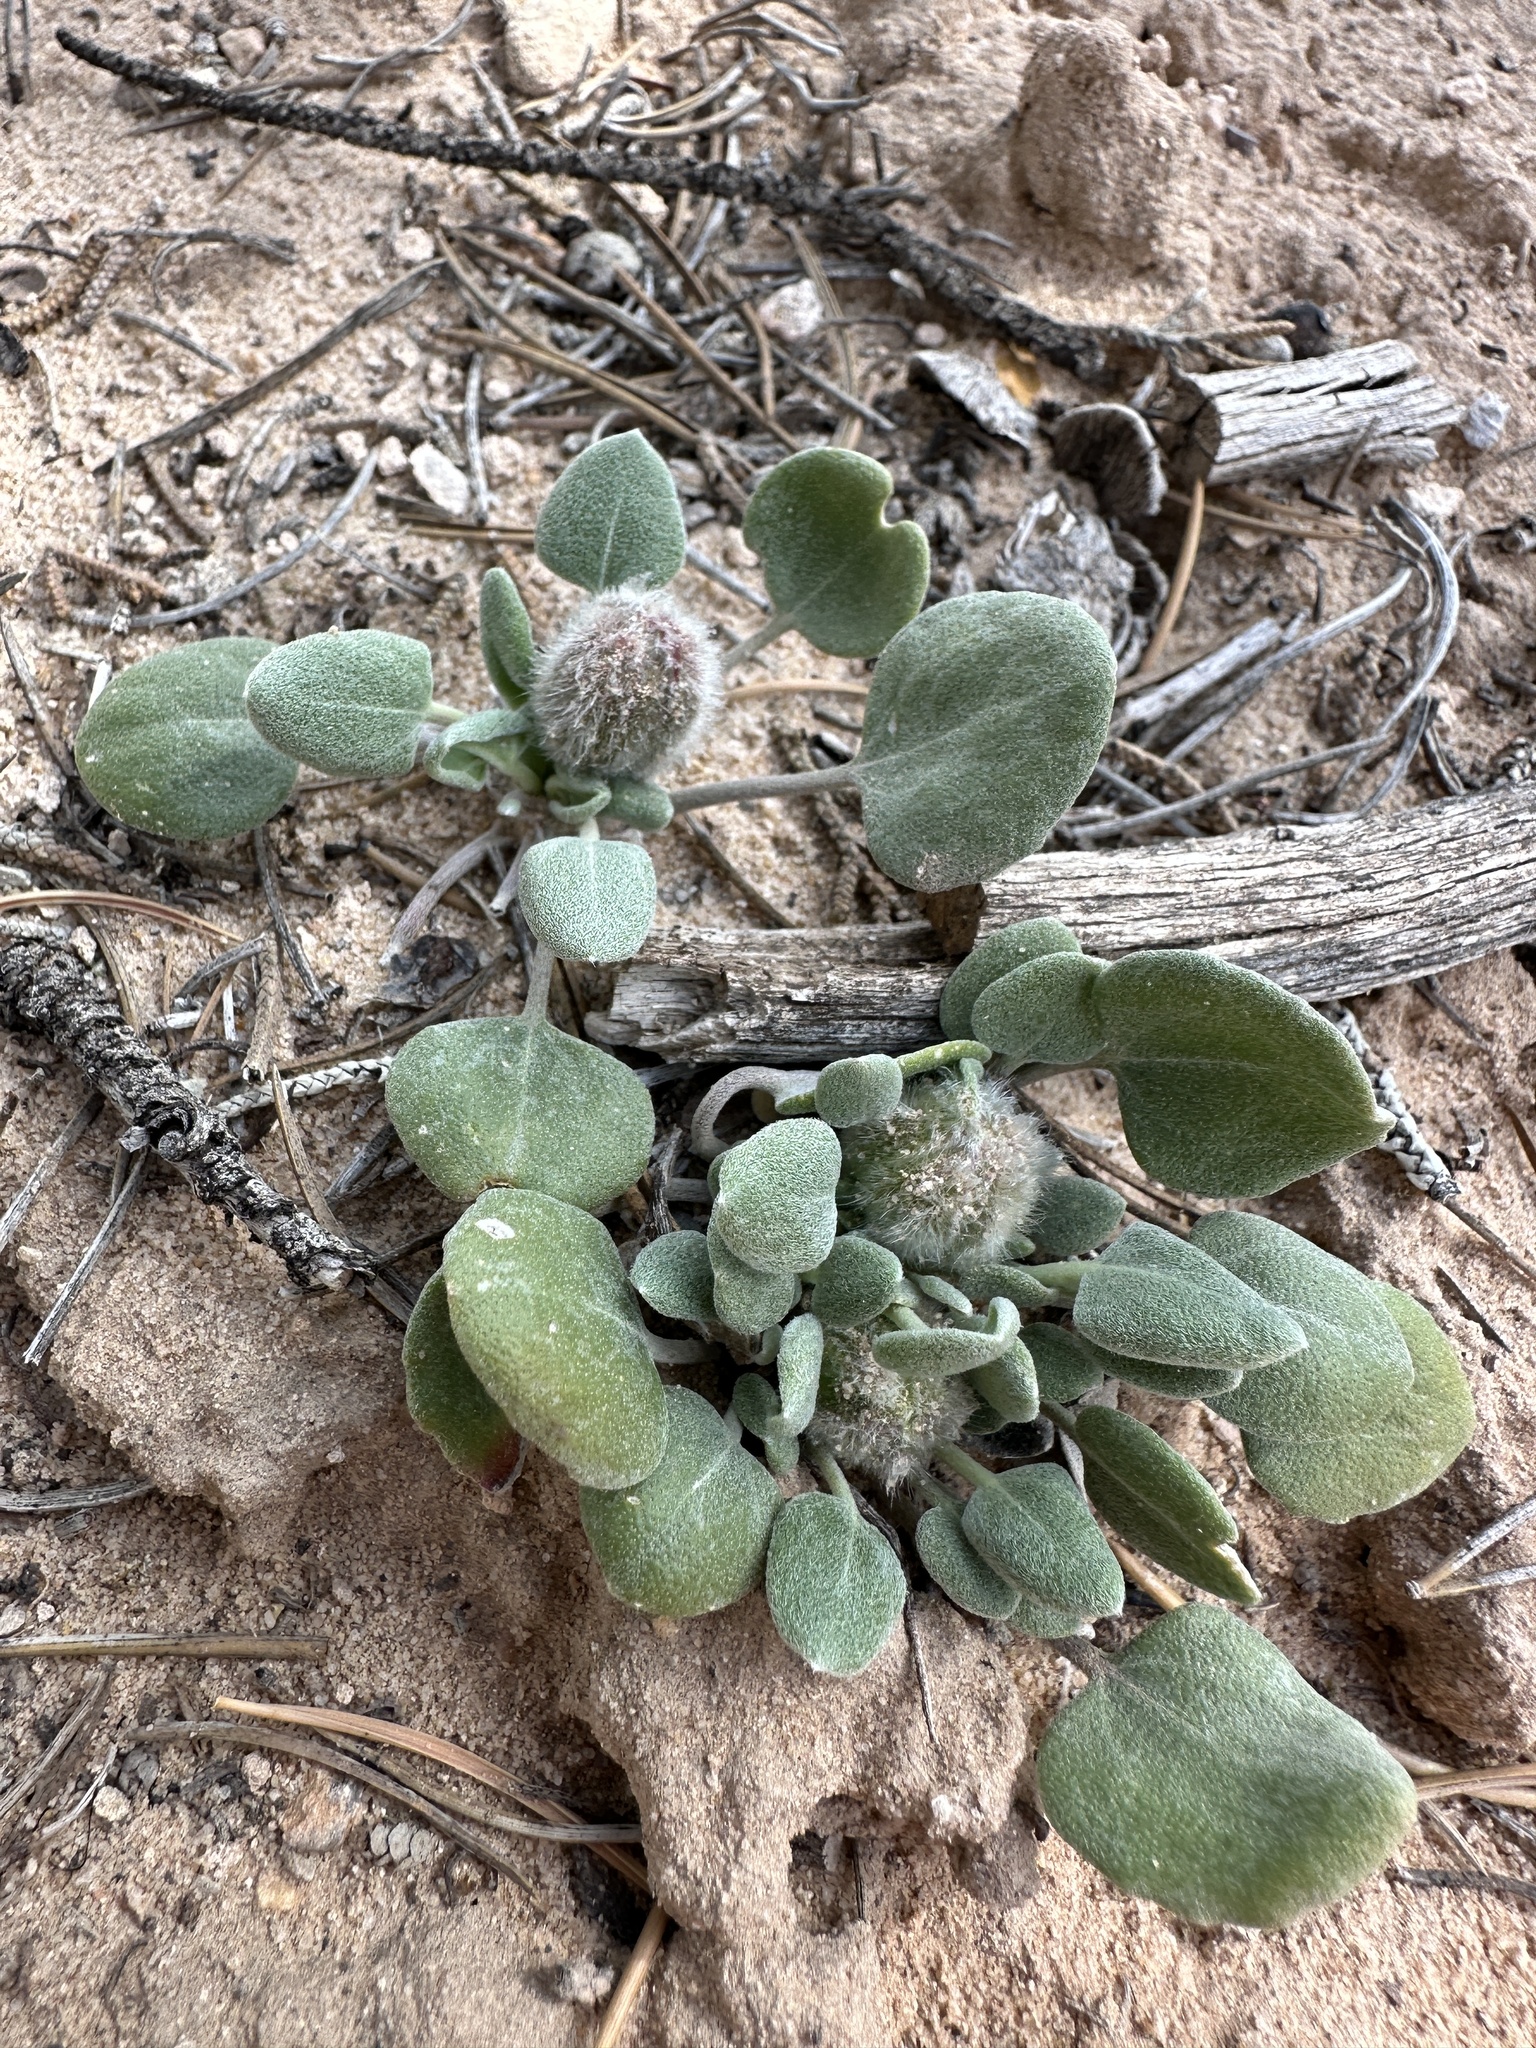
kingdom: Plantae
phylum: Tracheophyta
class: Magnoliopsida
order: Asterales
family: Asteraceae
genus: Chamaechaenactis
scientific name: Chamaechaenactis scaposa
